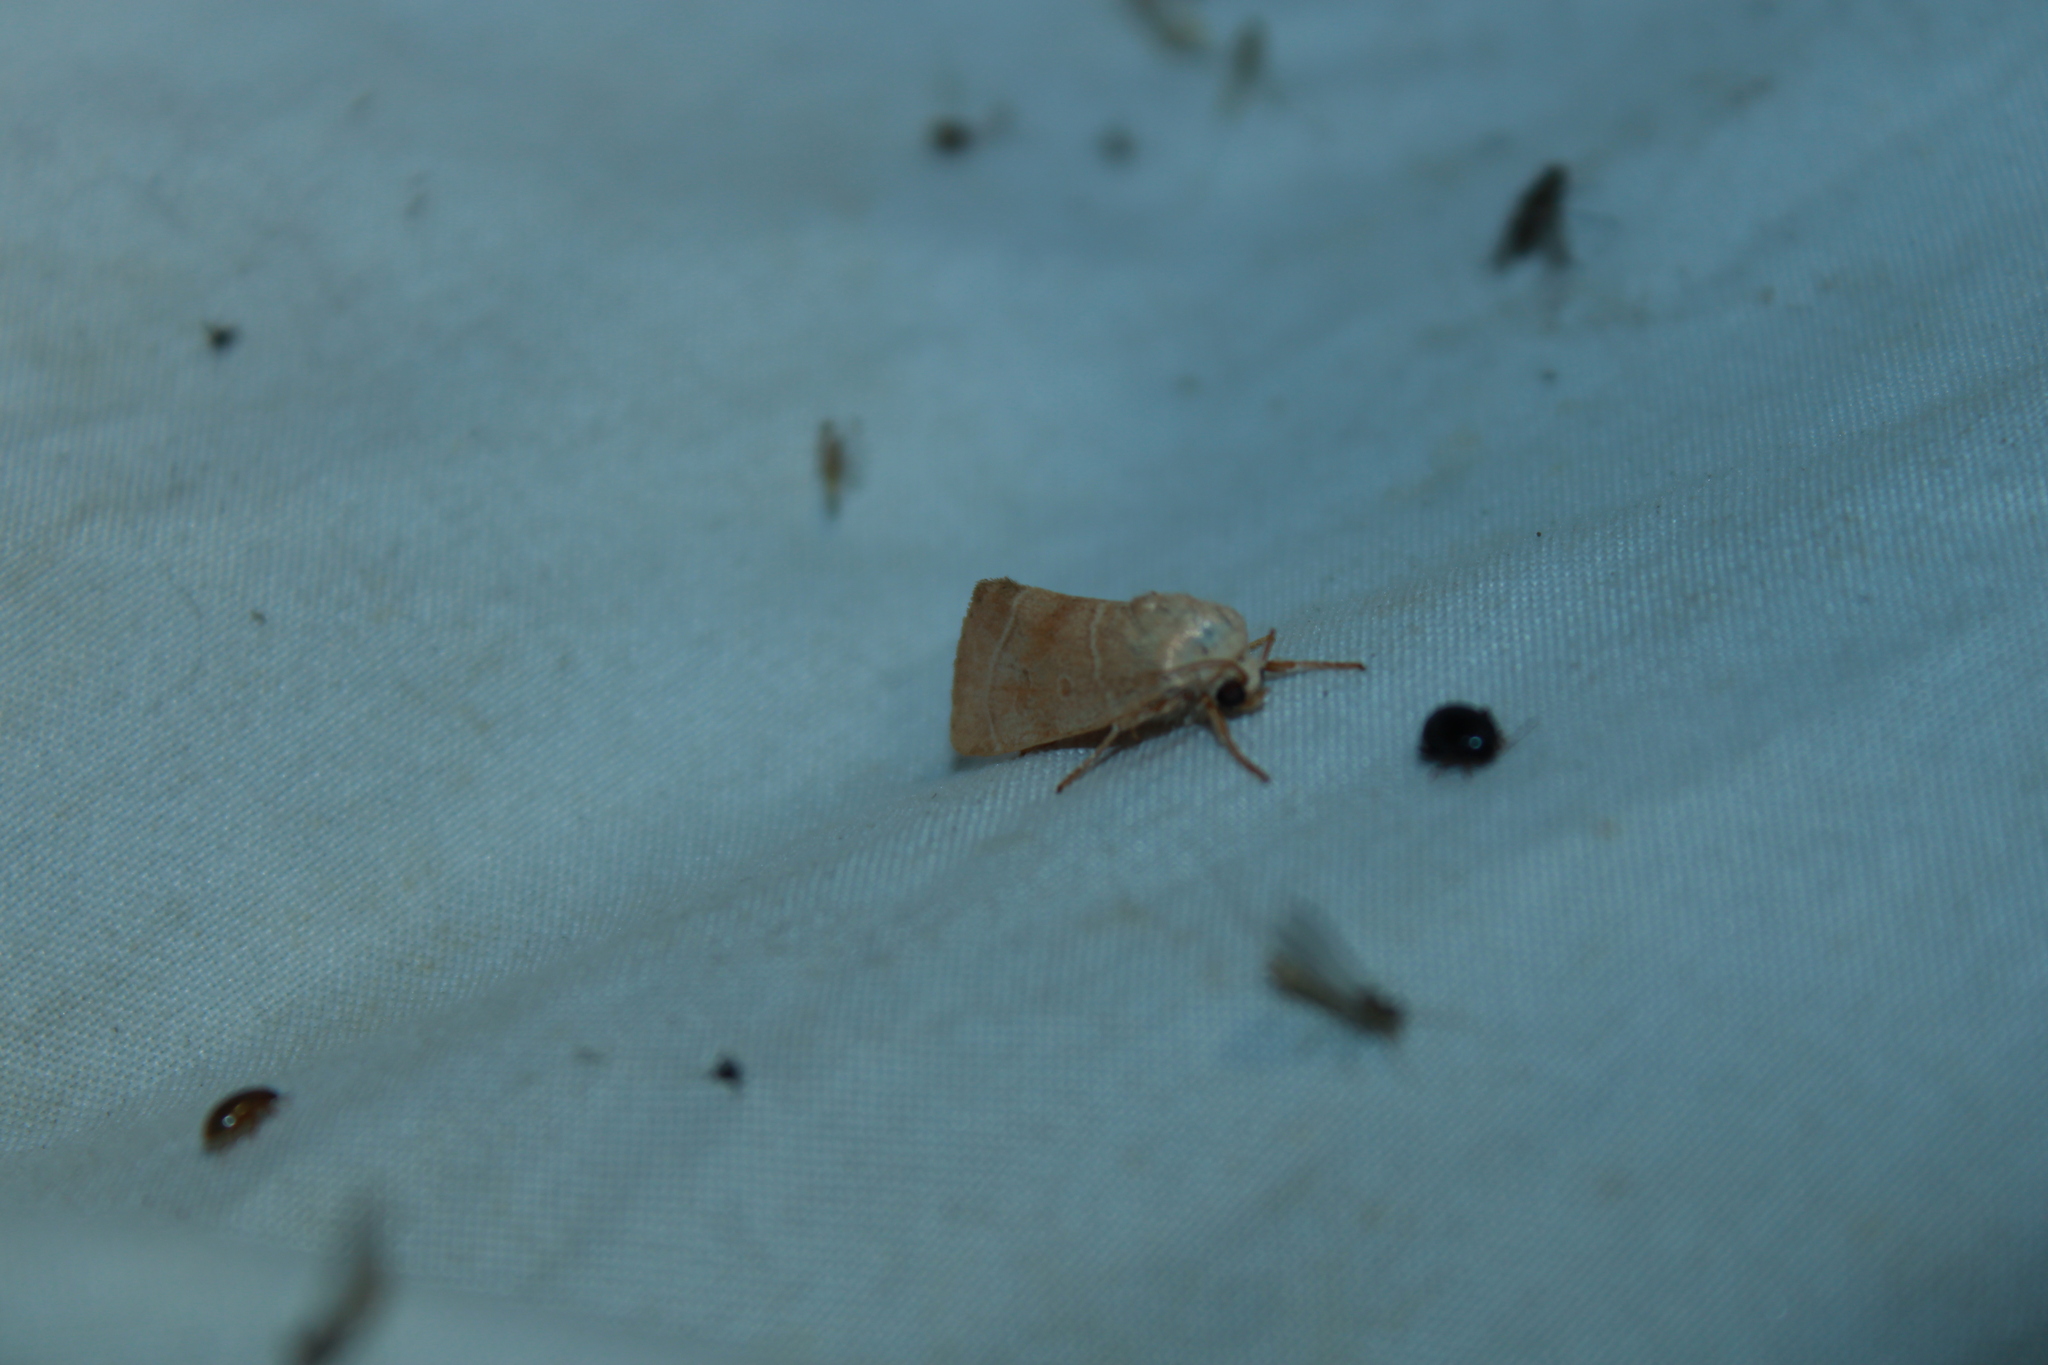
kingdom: Animalia
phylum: Arthropoda
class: Insecta
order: Lepidoptera
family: Noctuidae
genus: Cosmia
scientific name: Cosmia calami
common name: American dun-bar moth
